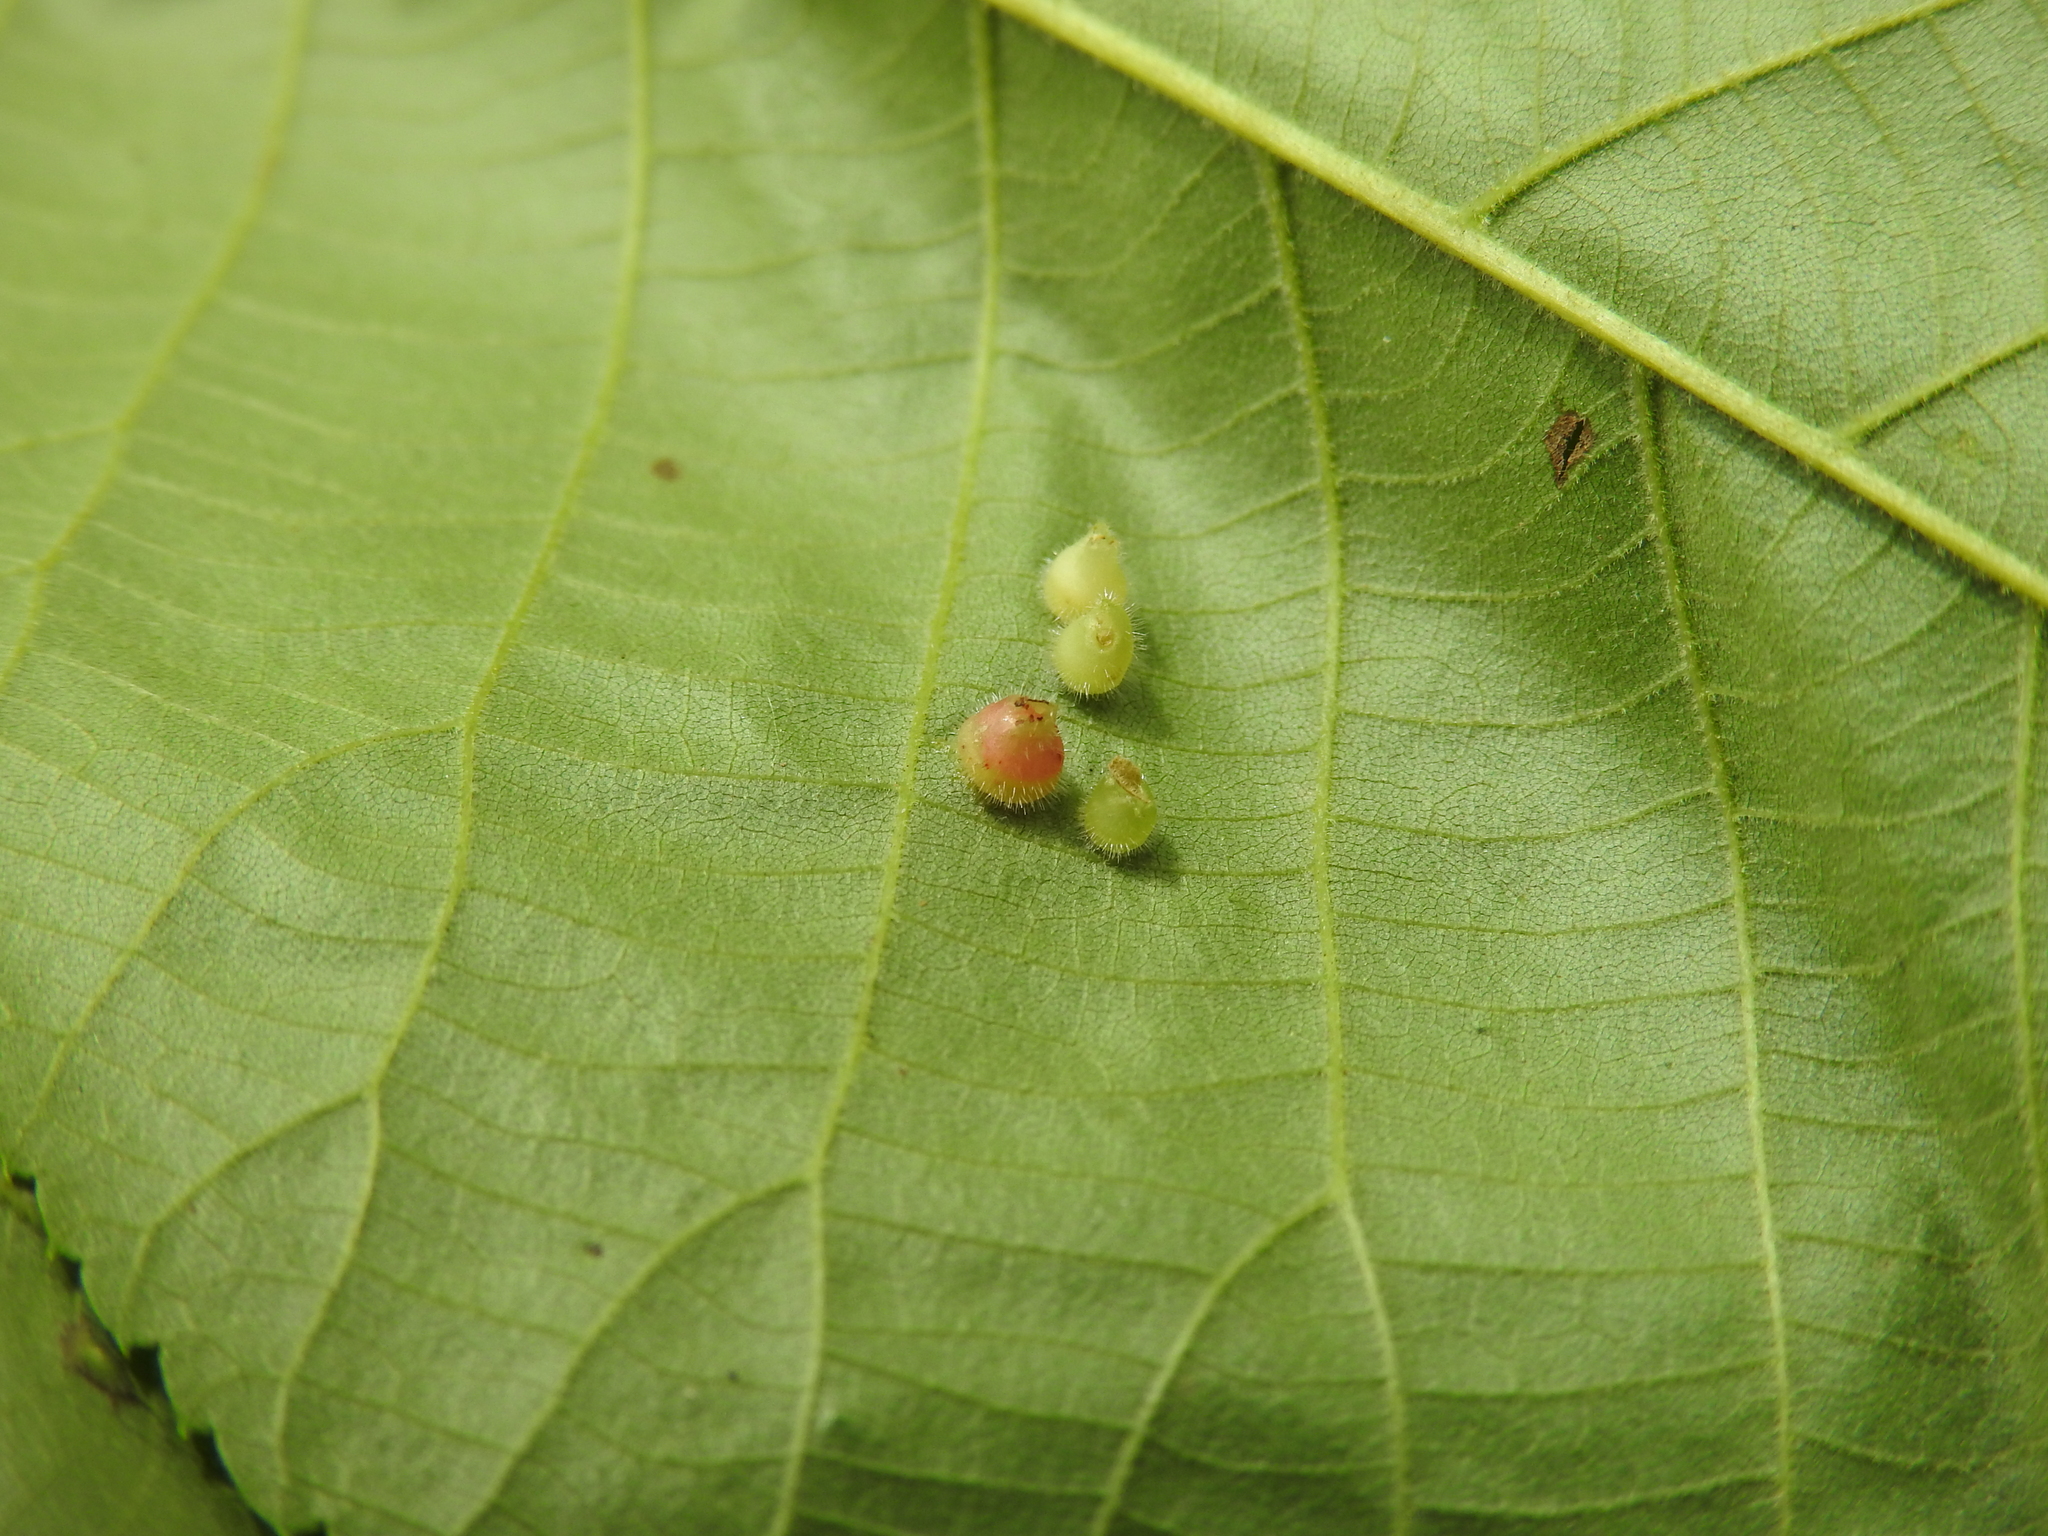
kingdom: Animalia
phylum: Arthropoda
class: Insecta
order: Diptera
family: Cecidomyiidae
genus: Caryomyia
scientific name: Caryomyia inanis
